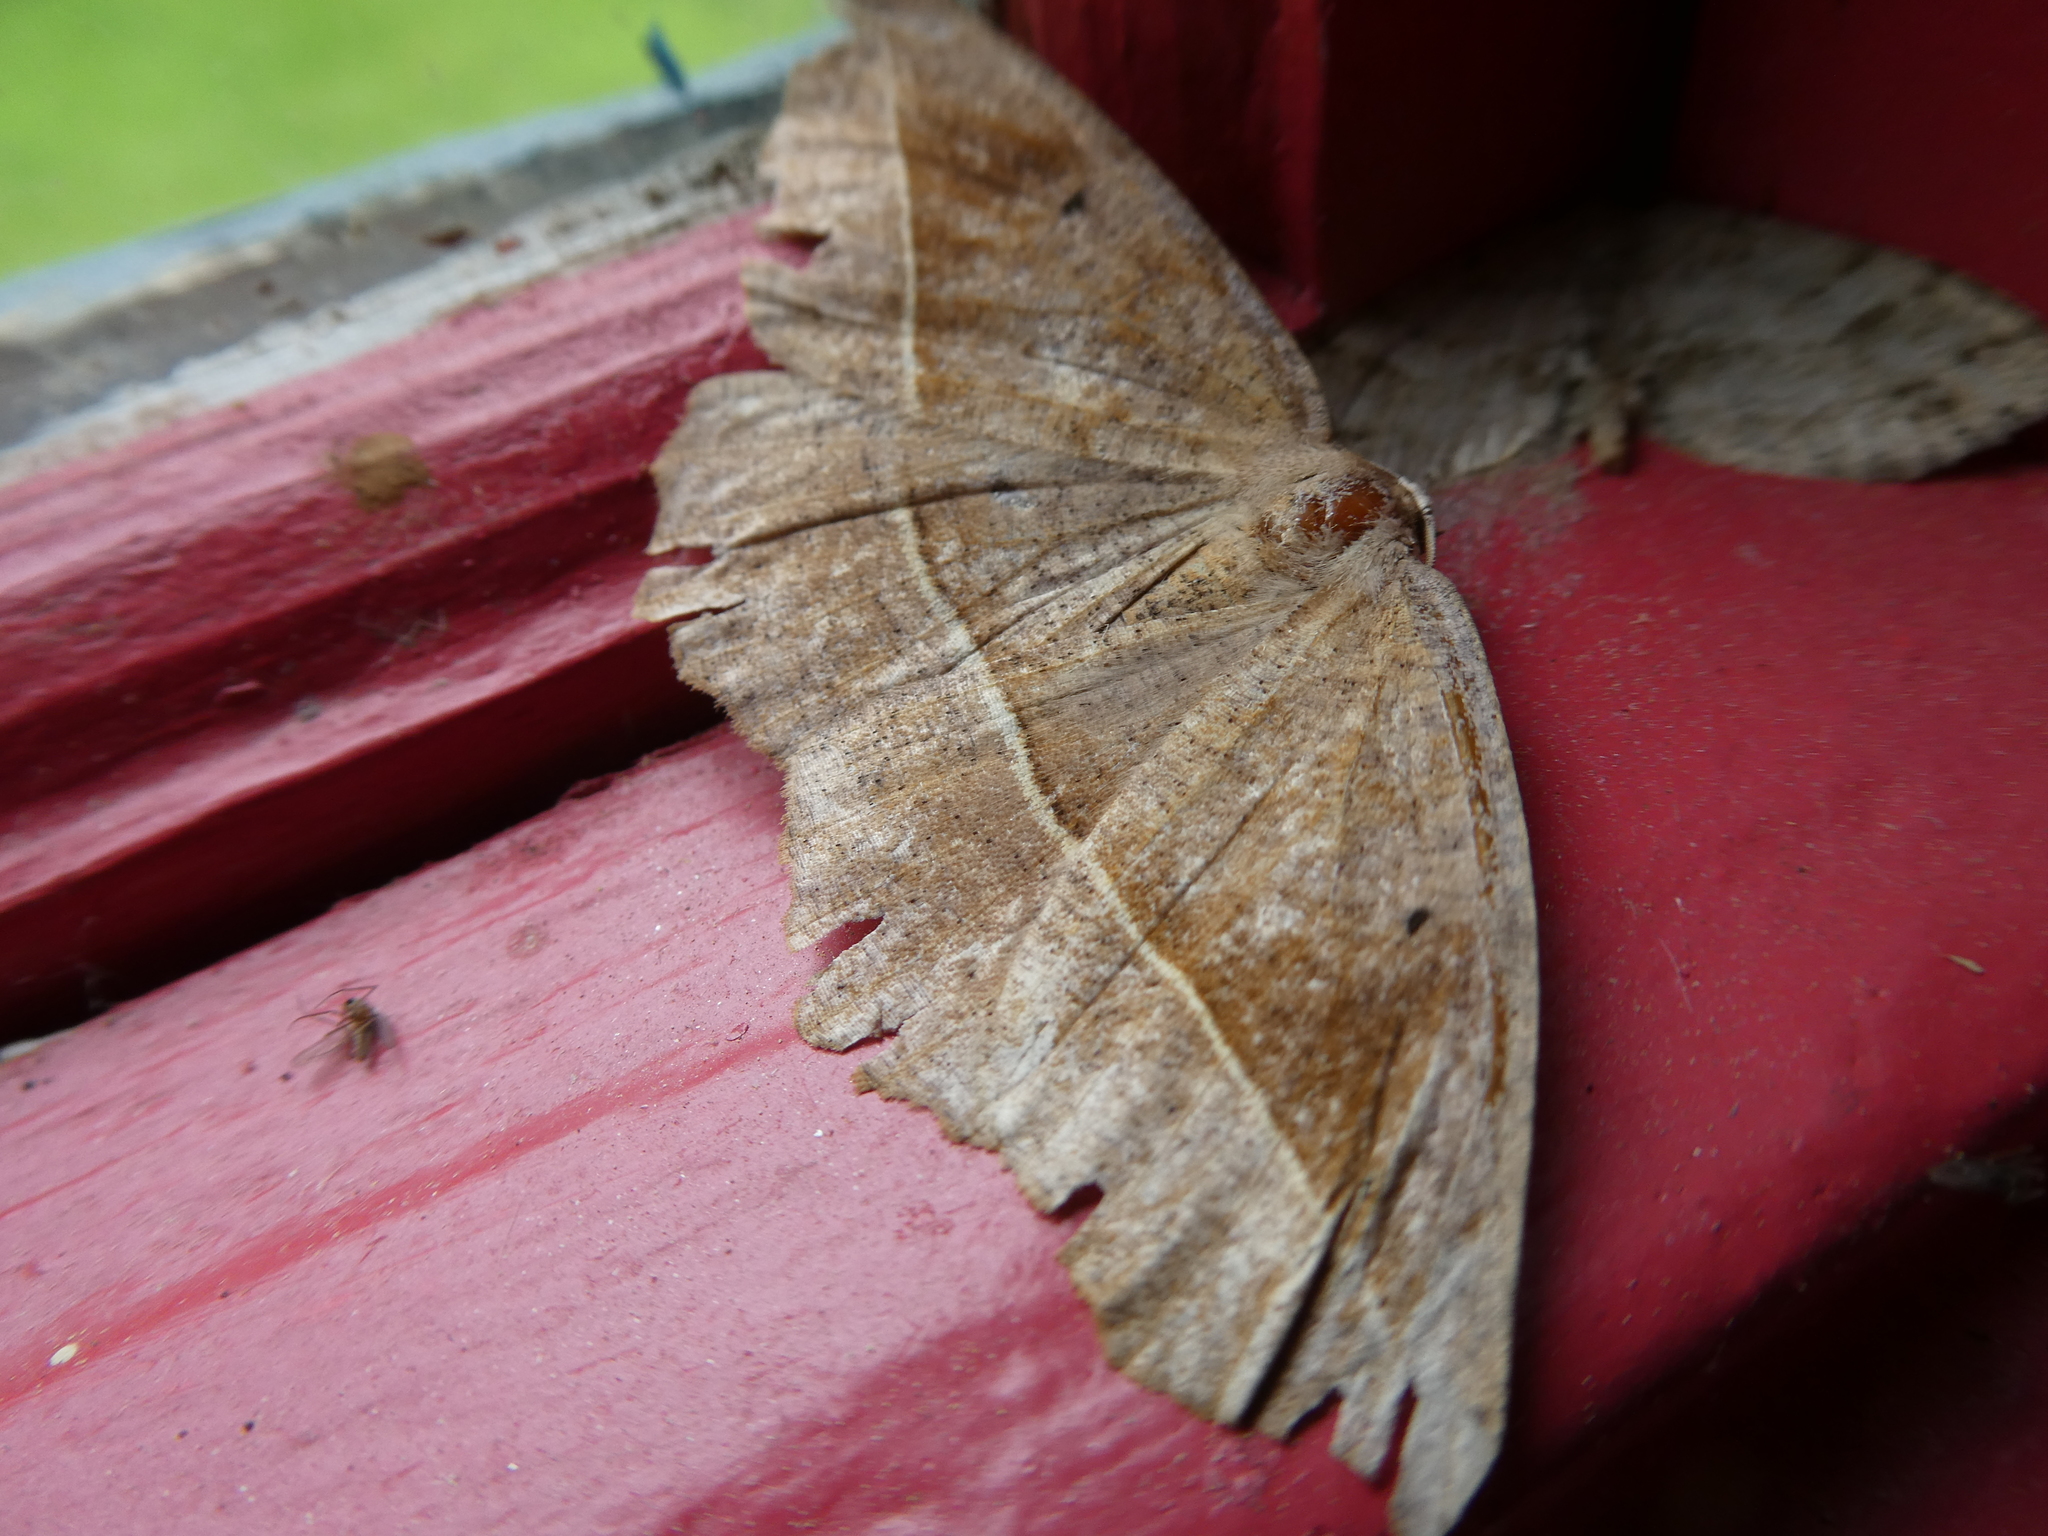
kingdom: Animalia
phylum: Arthropoda
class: Insecta
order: Lepidoptera
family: Geometridae
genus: Eutrapela
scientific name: Eutrapela clemataria
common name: Curved-toothed geometer
